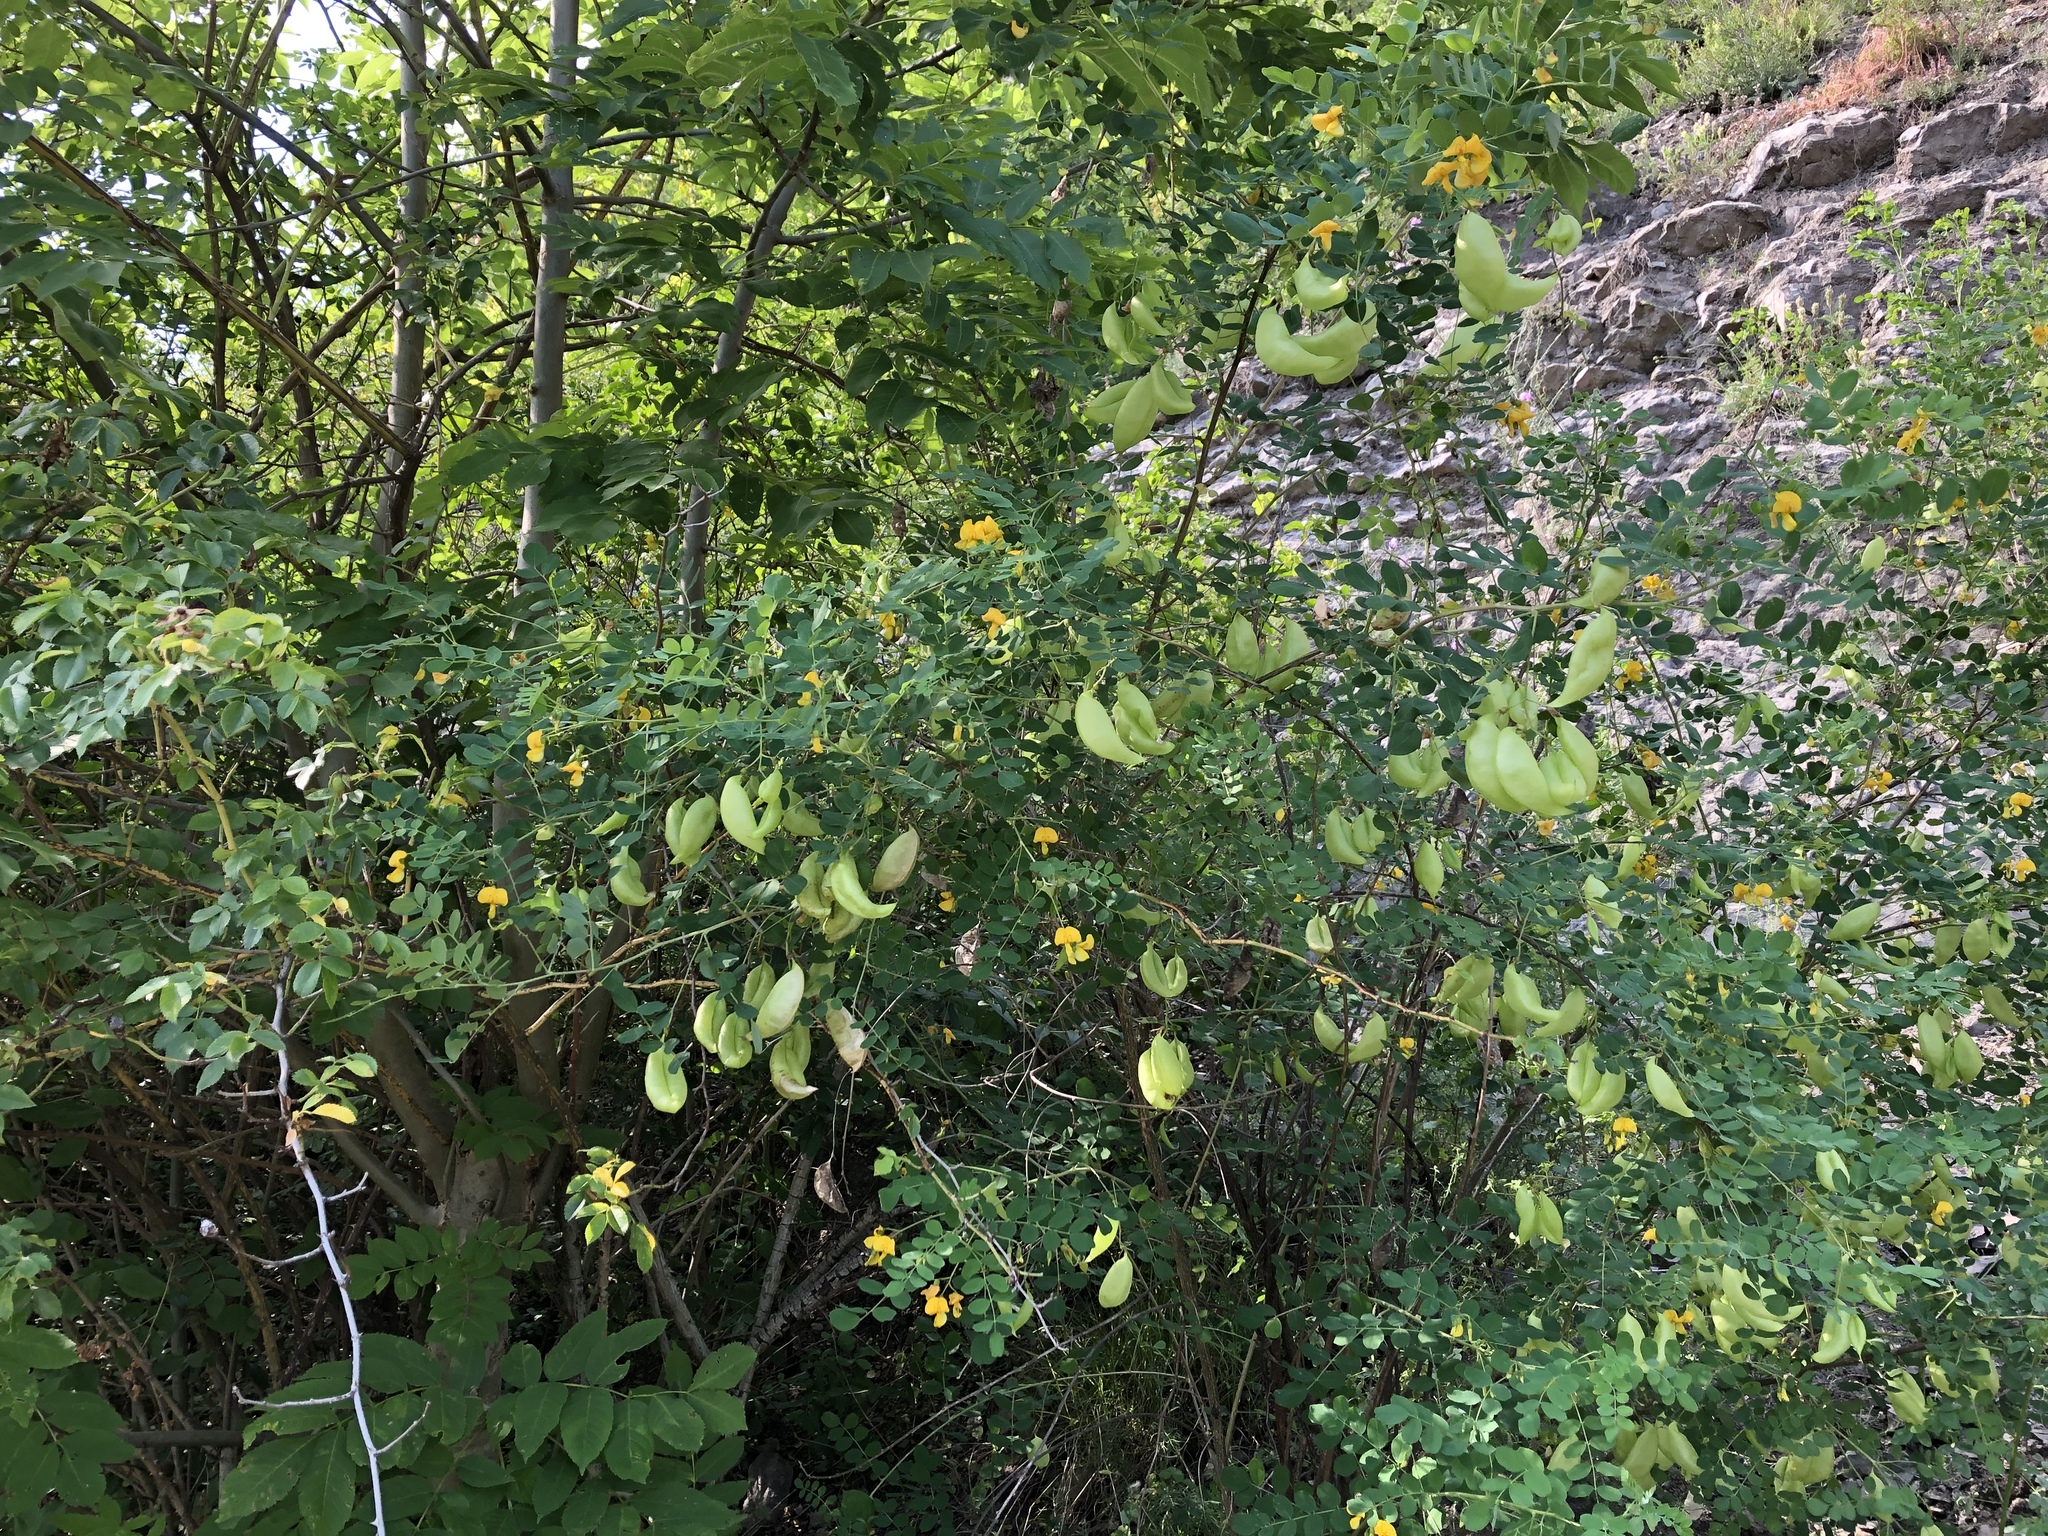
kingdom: Plantae
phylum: Tracheophyta
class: Magnoliopsida
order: Fabales
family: Fabaceae
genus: Colutea
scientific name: Colutea arborescens
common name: Bladder-senna
